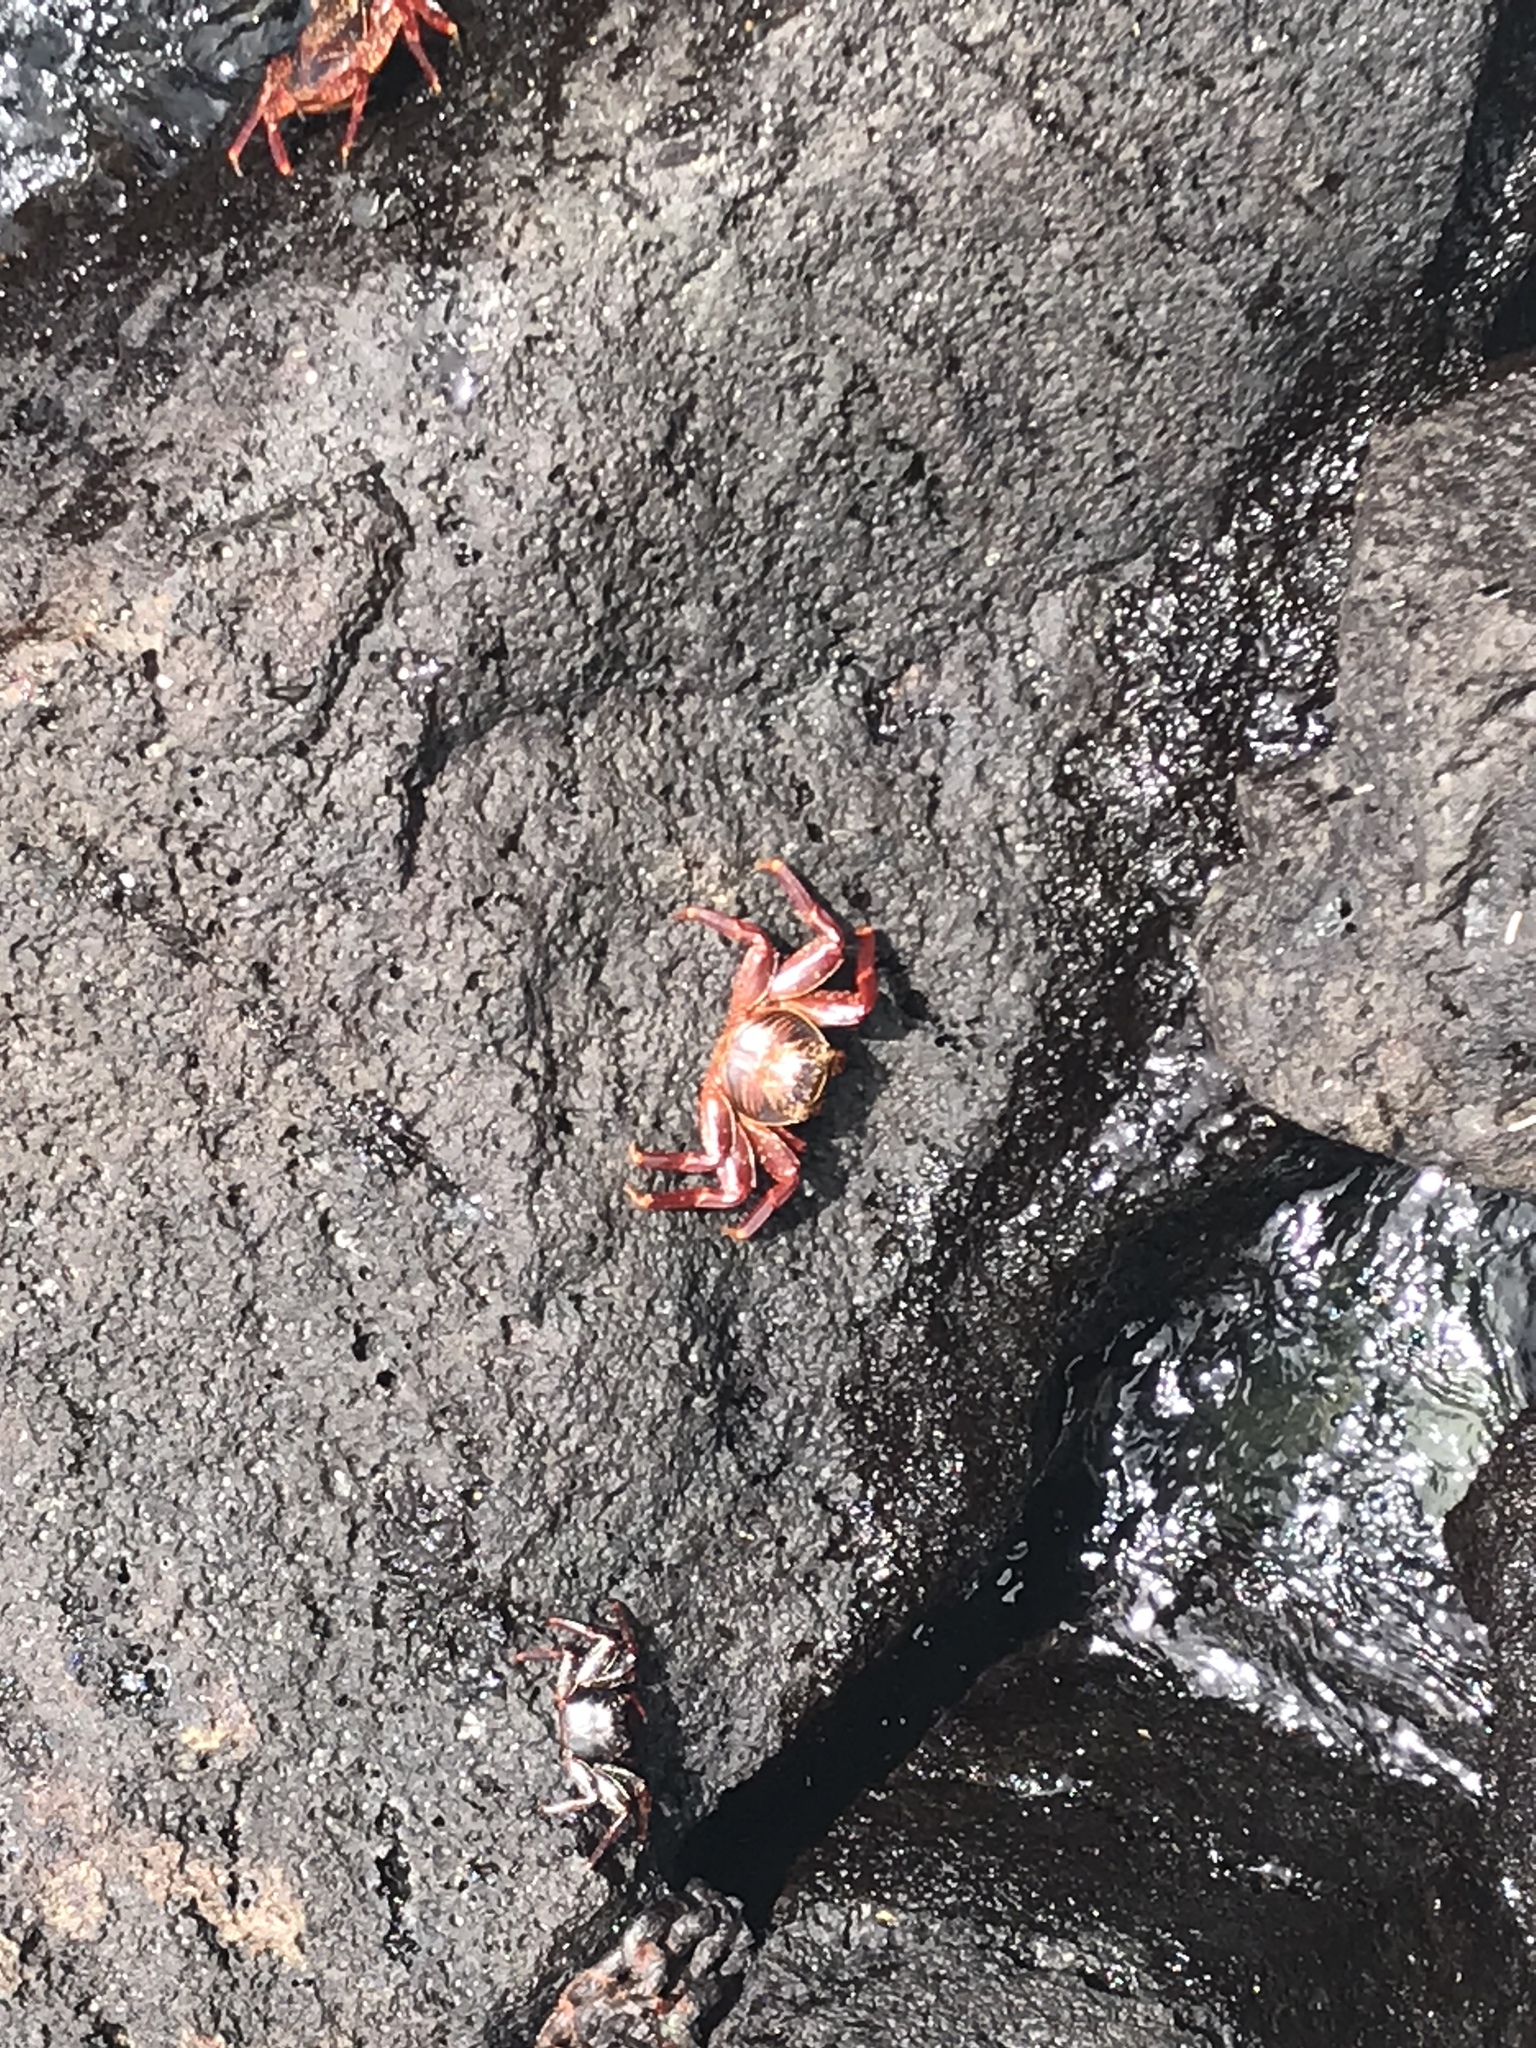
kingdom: Animalia
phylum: Arthropoda
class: Malacostraca
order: Decapoda
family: Grapsidae
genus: Grapsus
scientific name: Grapsus grapsus
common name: Sally lightfoot
